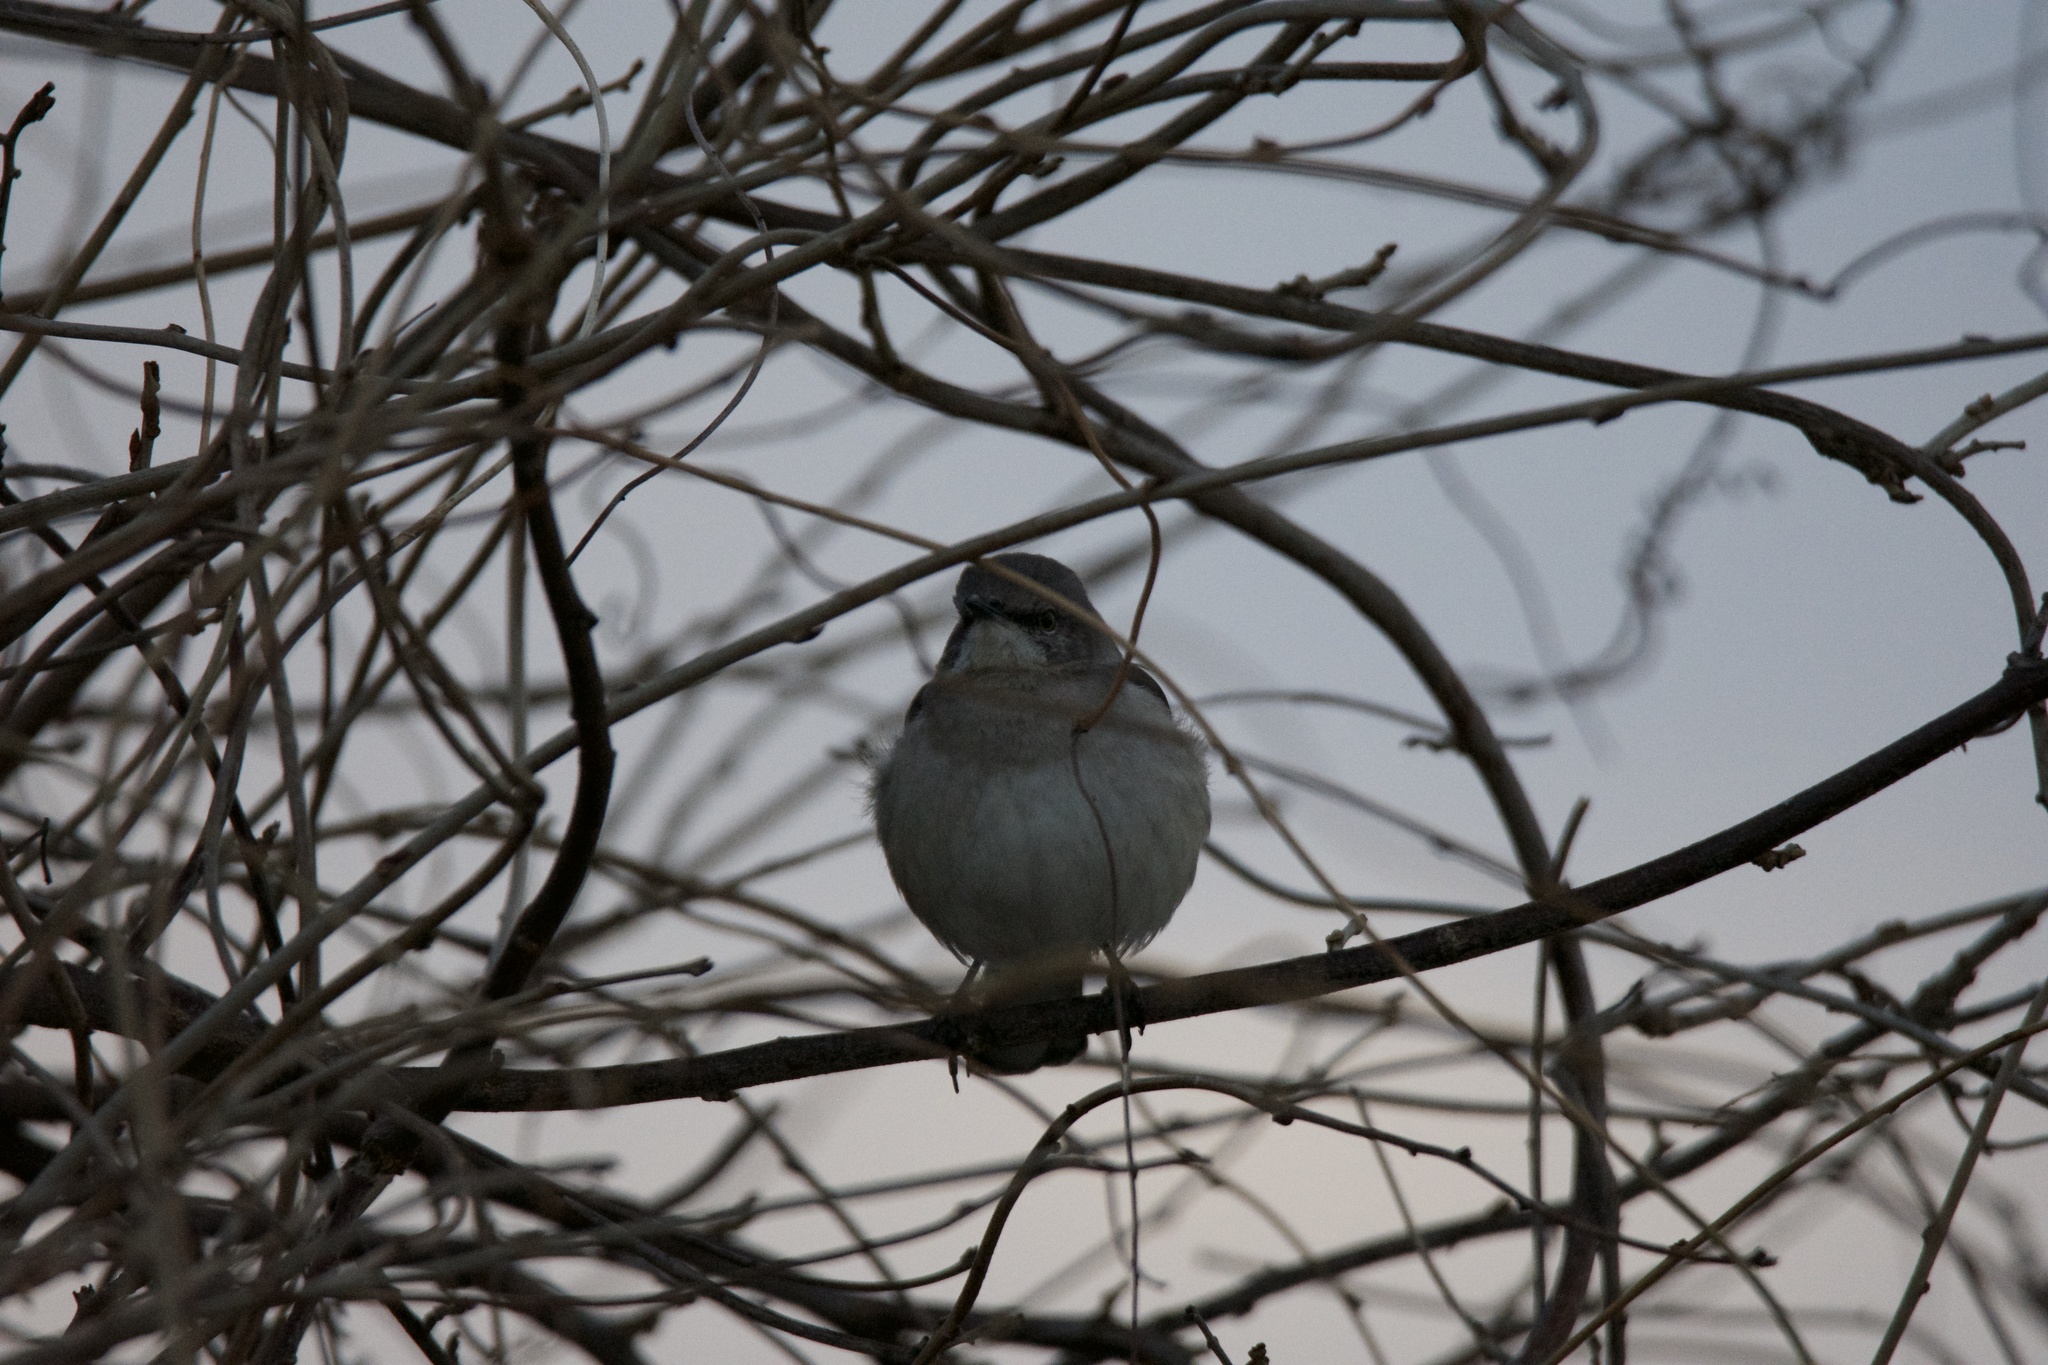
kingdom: Animalia
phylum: Chordata
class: Aves
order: Passeriformes
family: Mimidae
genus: Mimus
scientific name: Mimus polyglottos
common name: Northern mockingbird
